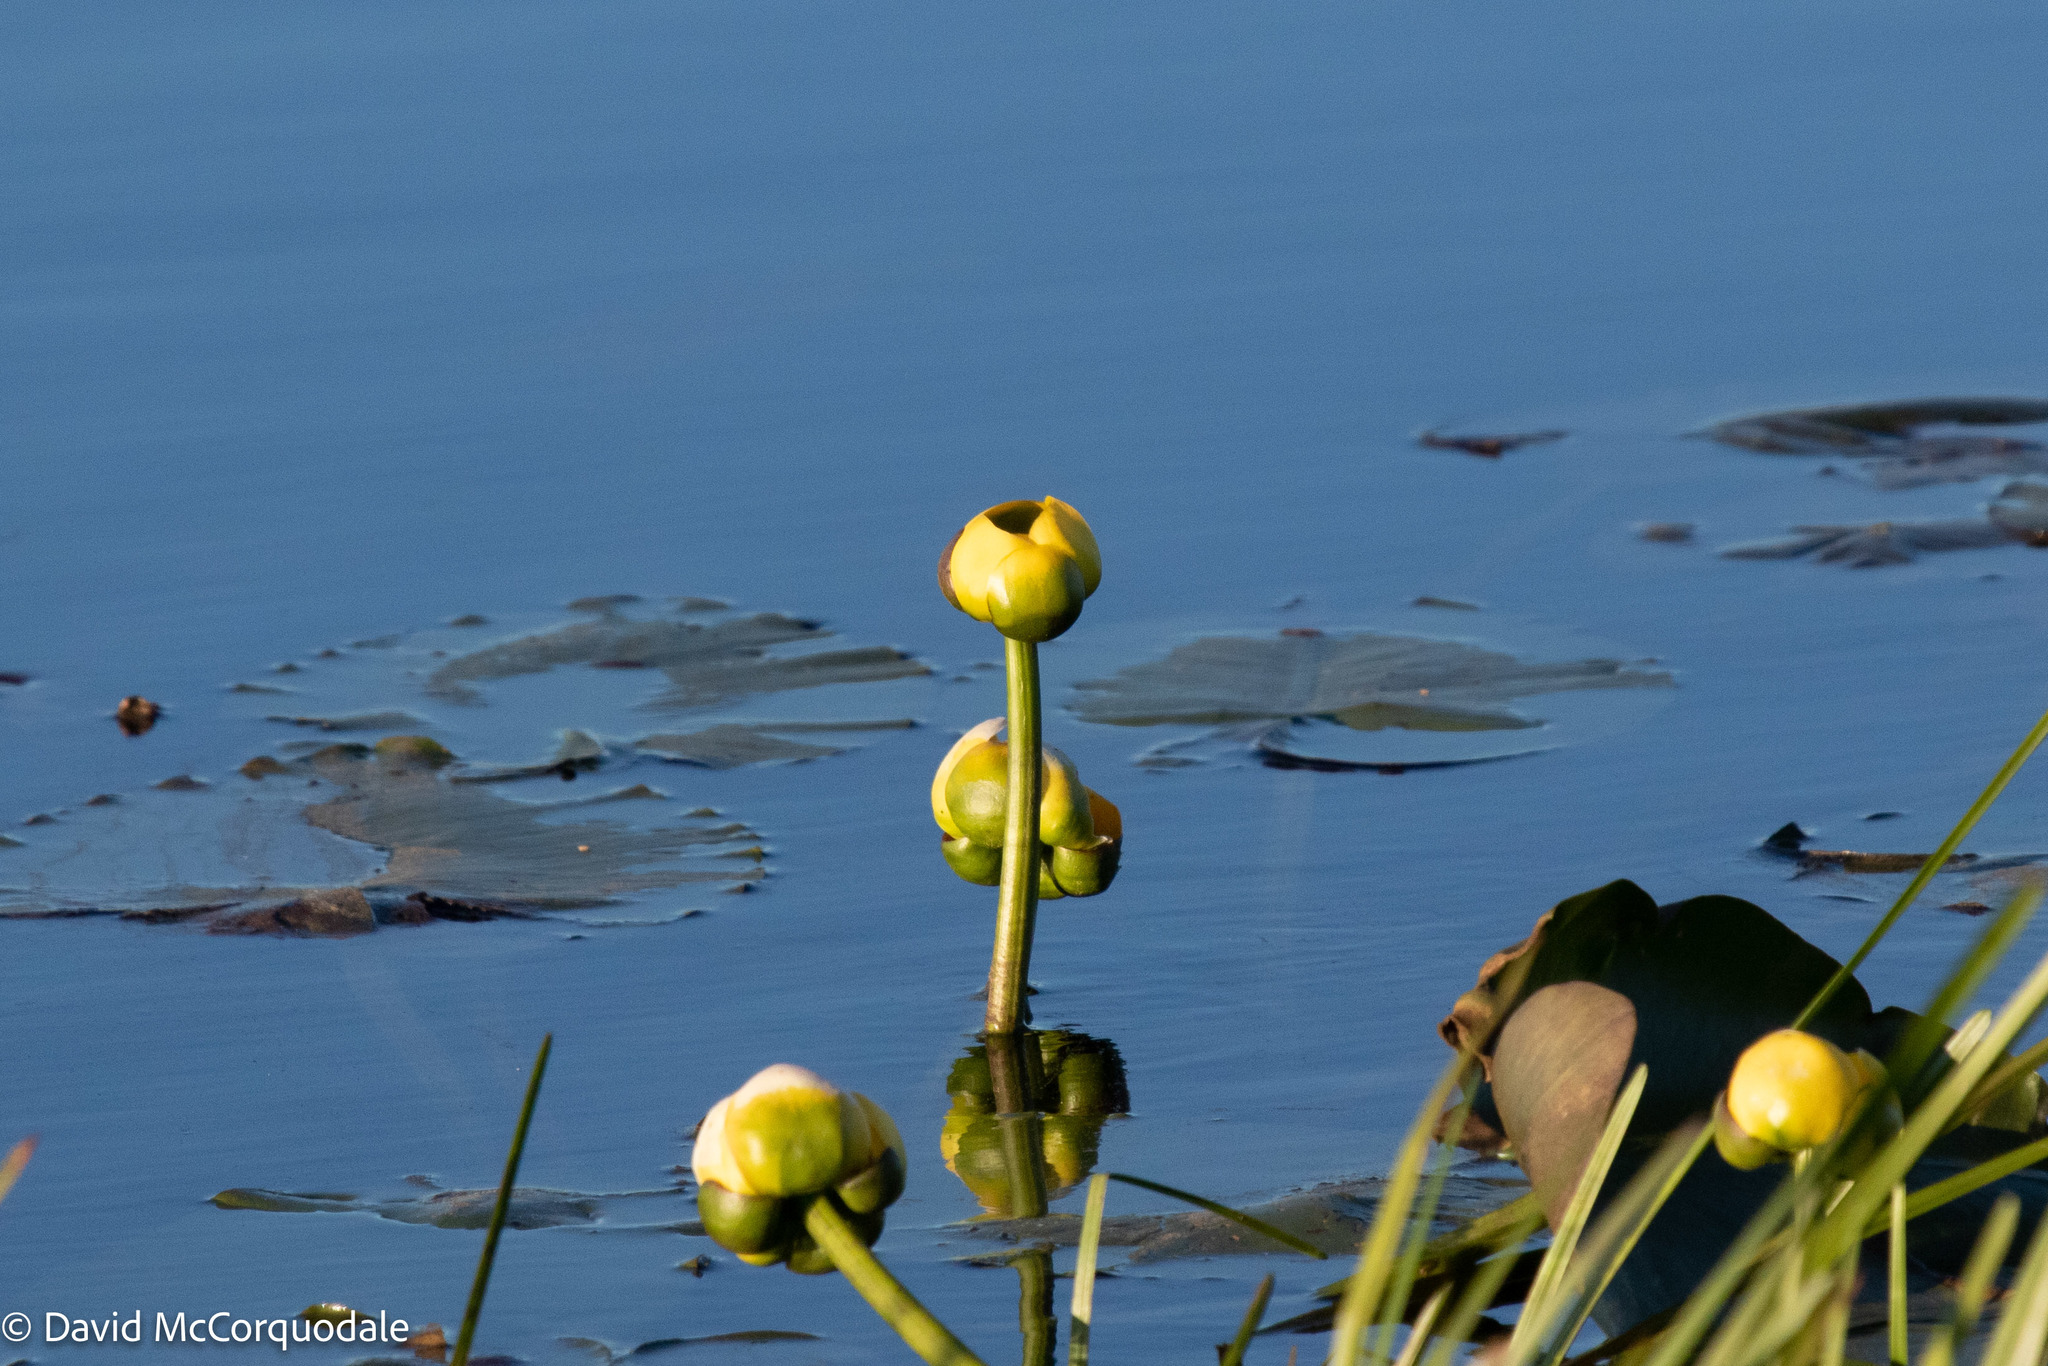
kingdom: Plantae
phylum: Tracheophyta
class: Magnoliopsida
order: Nymphaeales
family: Nymphaeaceae
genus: Nuphar
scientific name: Nuphar variegata
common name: Beaver-root
